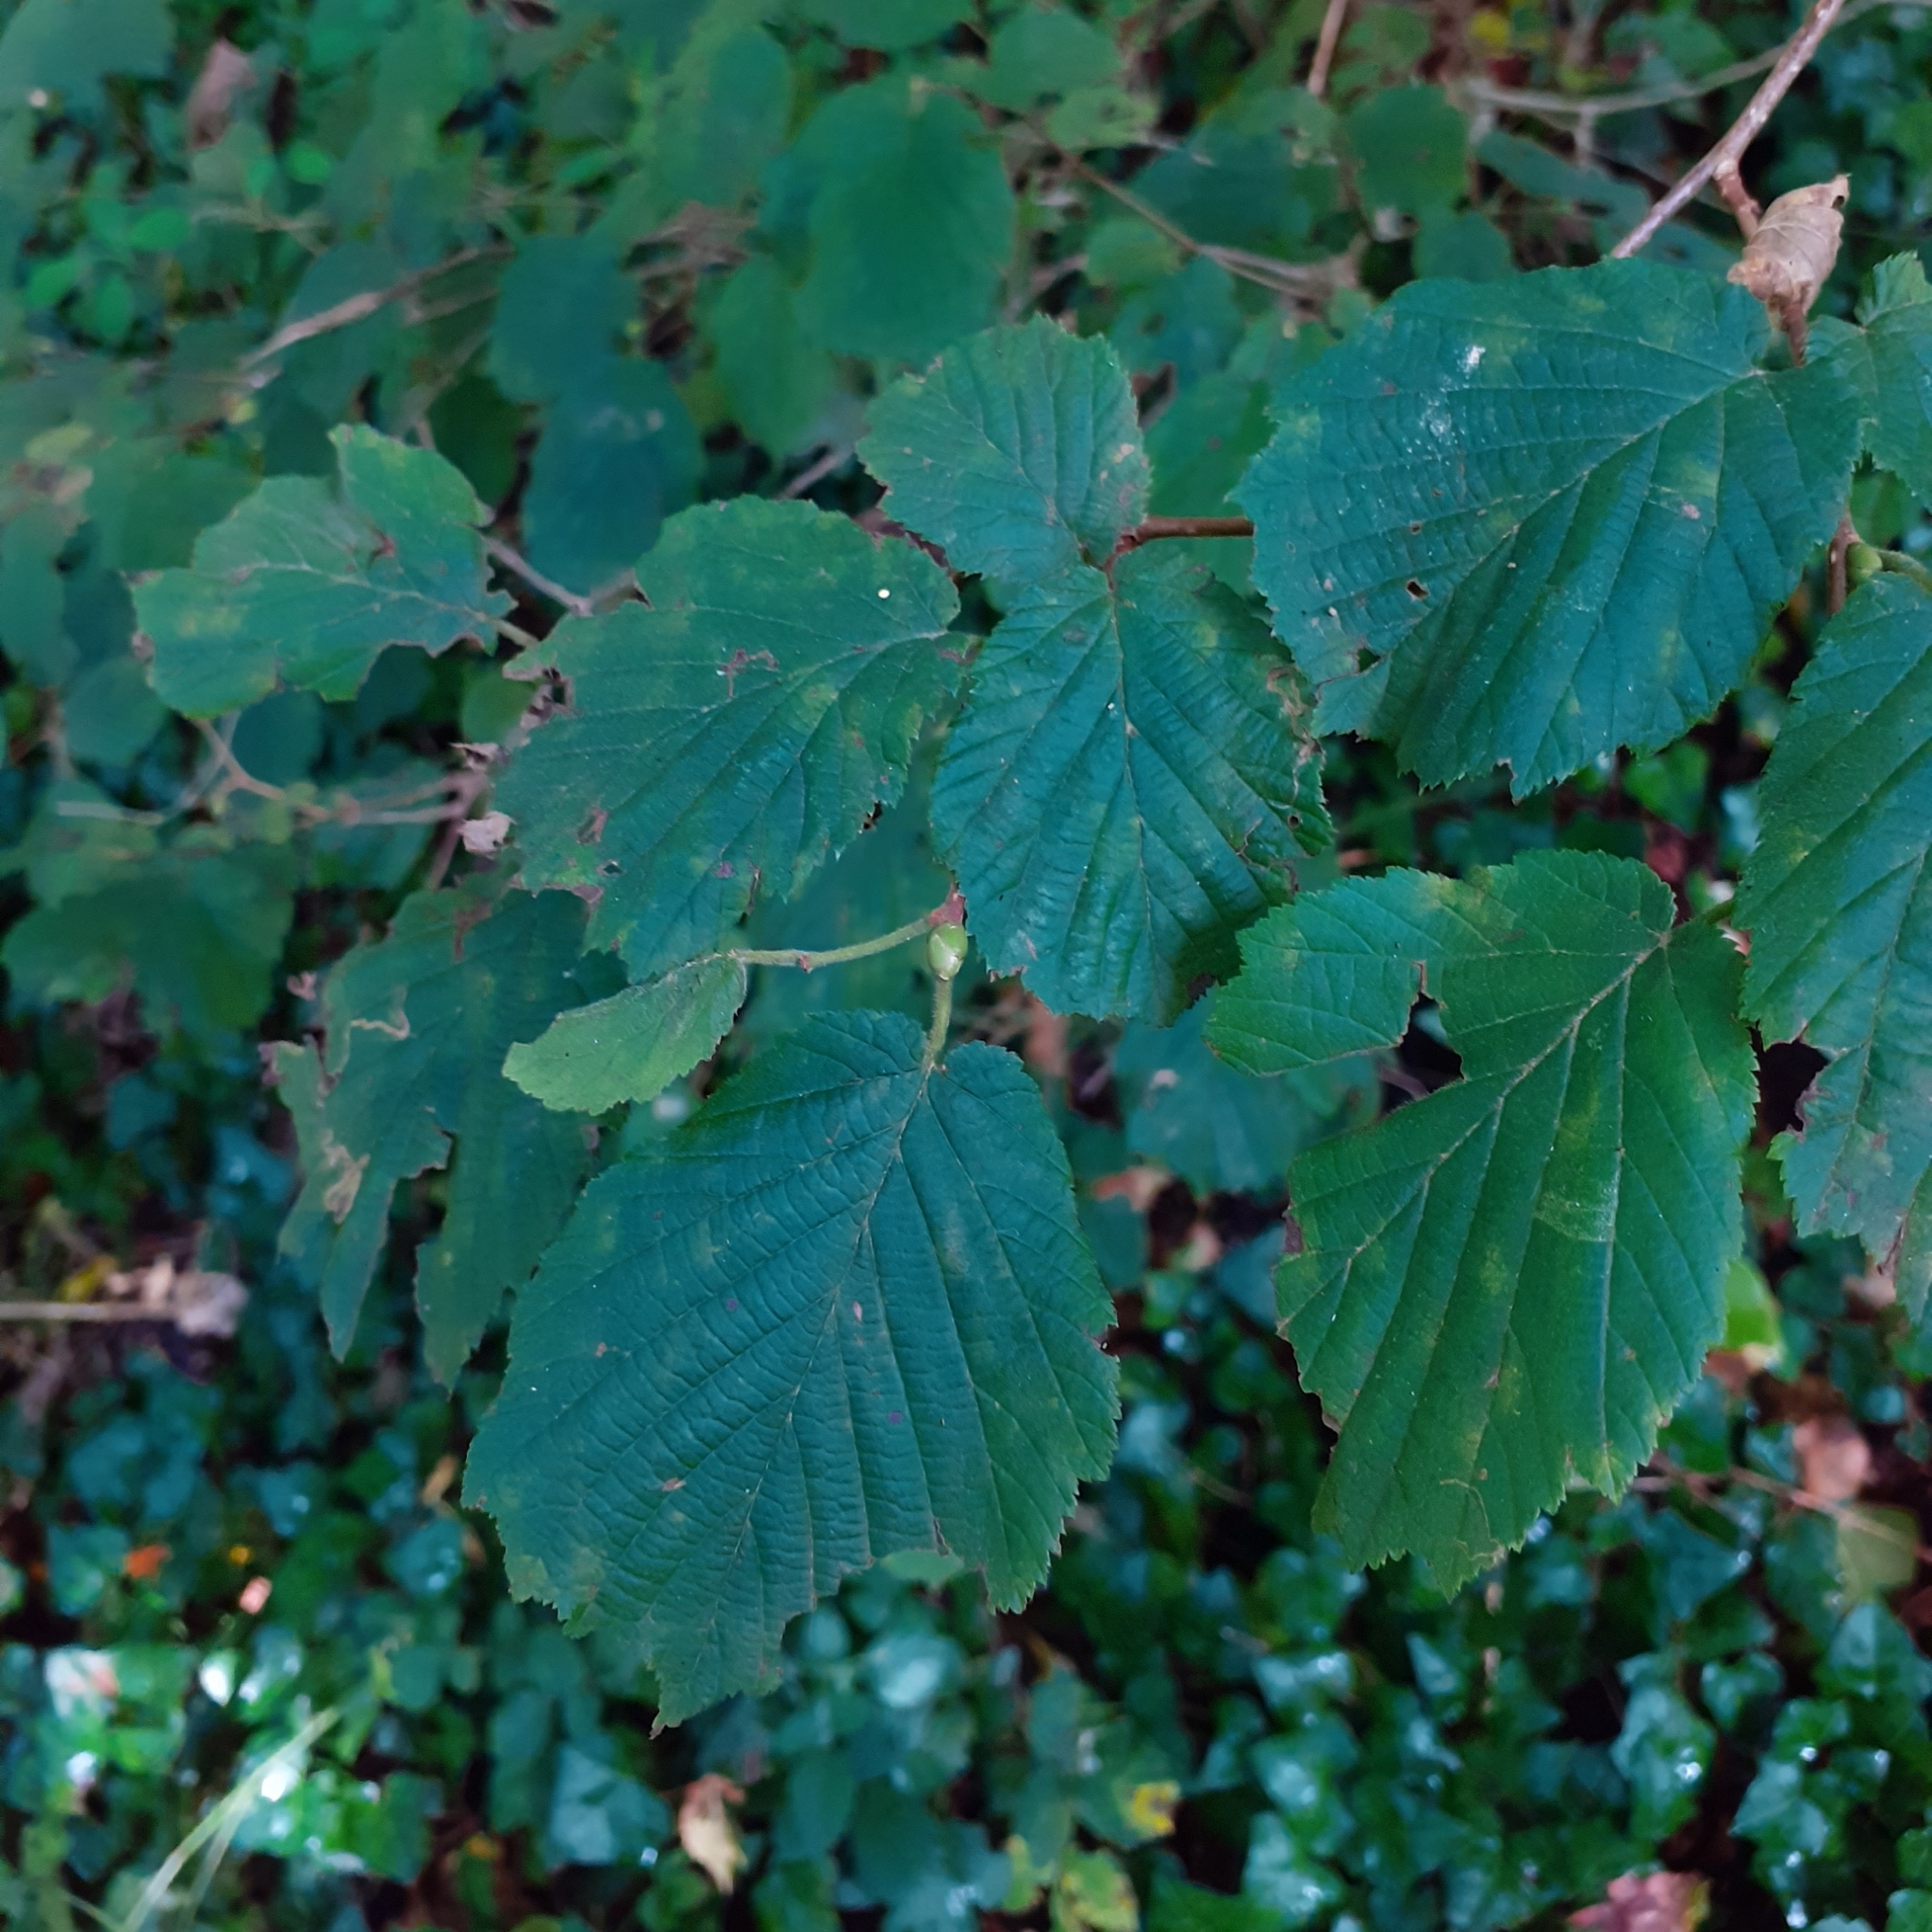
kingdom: Plantae
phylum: Tracheophyta
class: Magnoliopsida
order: Fagales
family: Betulaceae
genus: Corylus
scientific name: Corylus avellana
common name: European hazel
